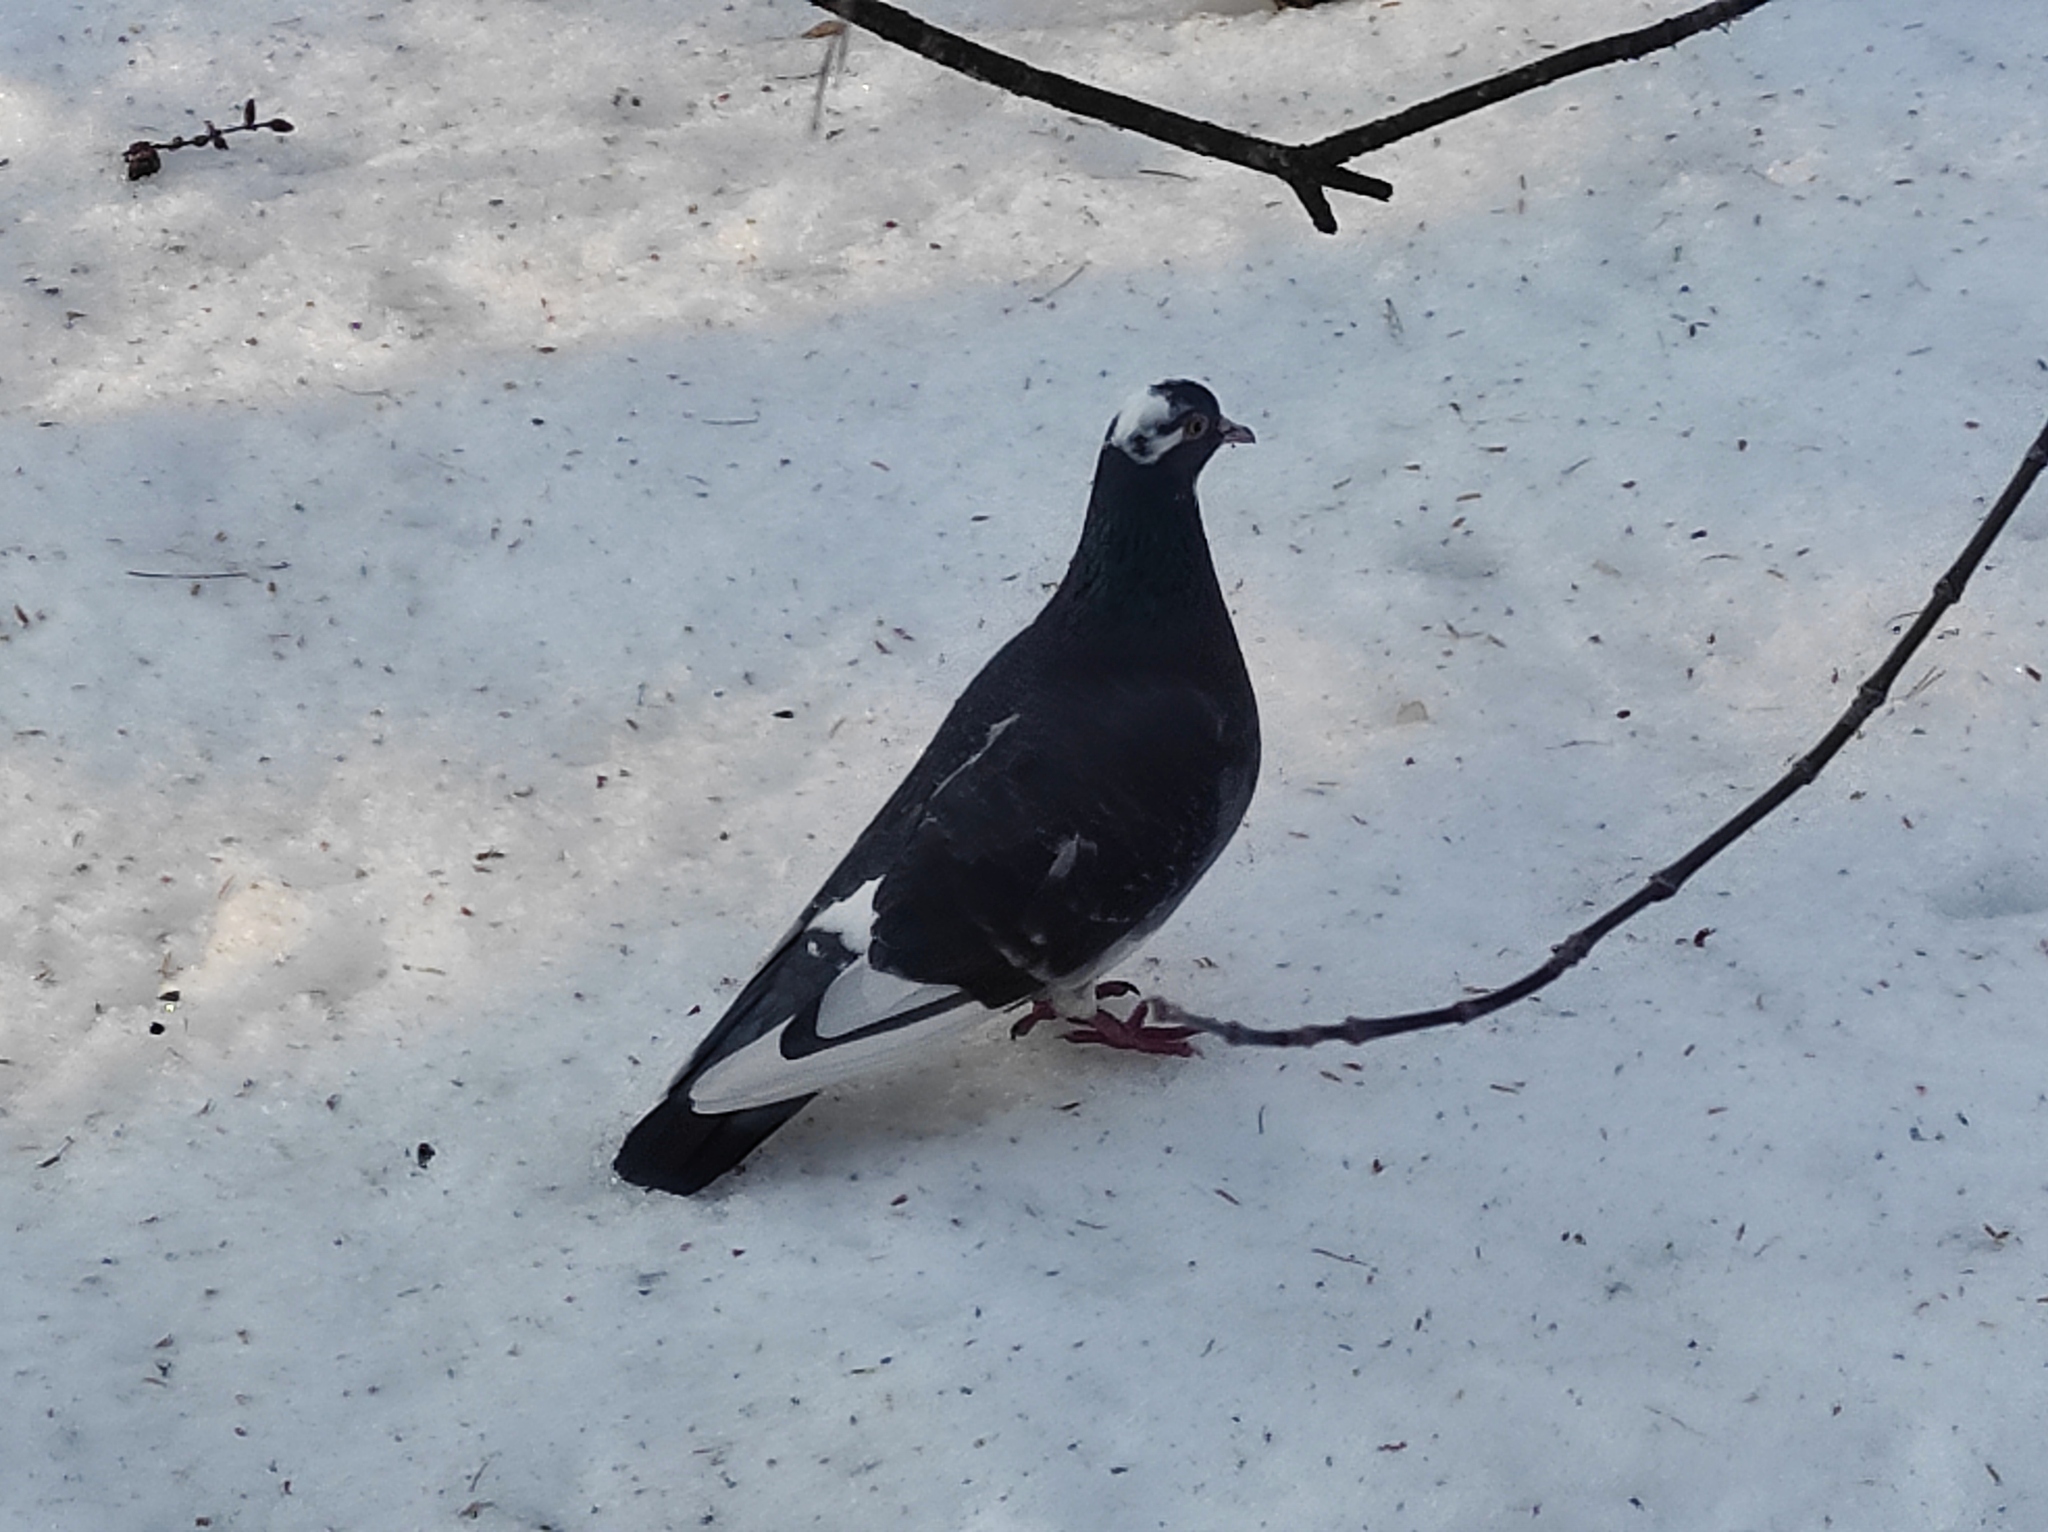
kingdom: Animalia
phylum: Chordata
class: Aves
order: Columbiformes
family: Columbidae
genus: Columba
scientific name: Columba livia
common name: Rock pigeon
